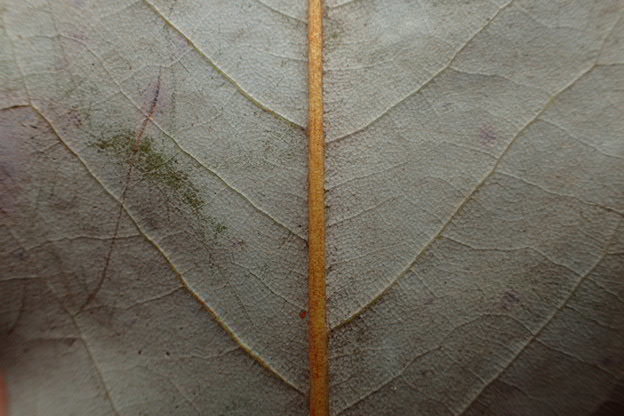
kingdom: Plantae
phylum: Tracheophyta
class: Magnoliopsida
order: Magnoliales
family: Magnoliaceae
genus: Magnolia
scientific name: Magnolia virginiana
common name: Swamp bay
